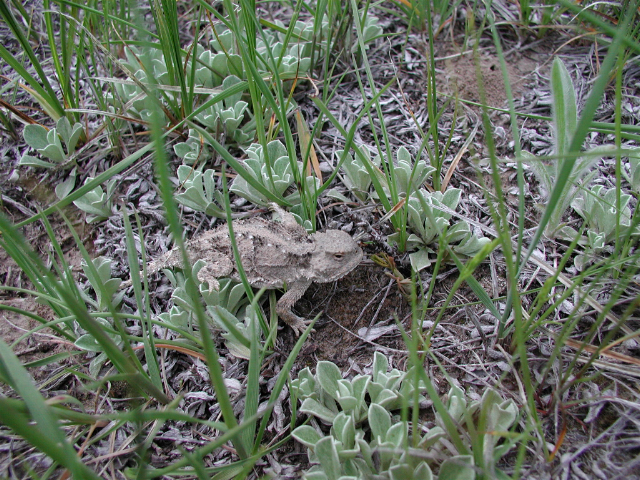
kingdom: Animalia
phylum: Chordata
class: Squamata
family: Phrynosomatidae
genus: Phrynosoma
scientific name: Phrynosoma hernandesi
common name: Greater short-horned lizard
